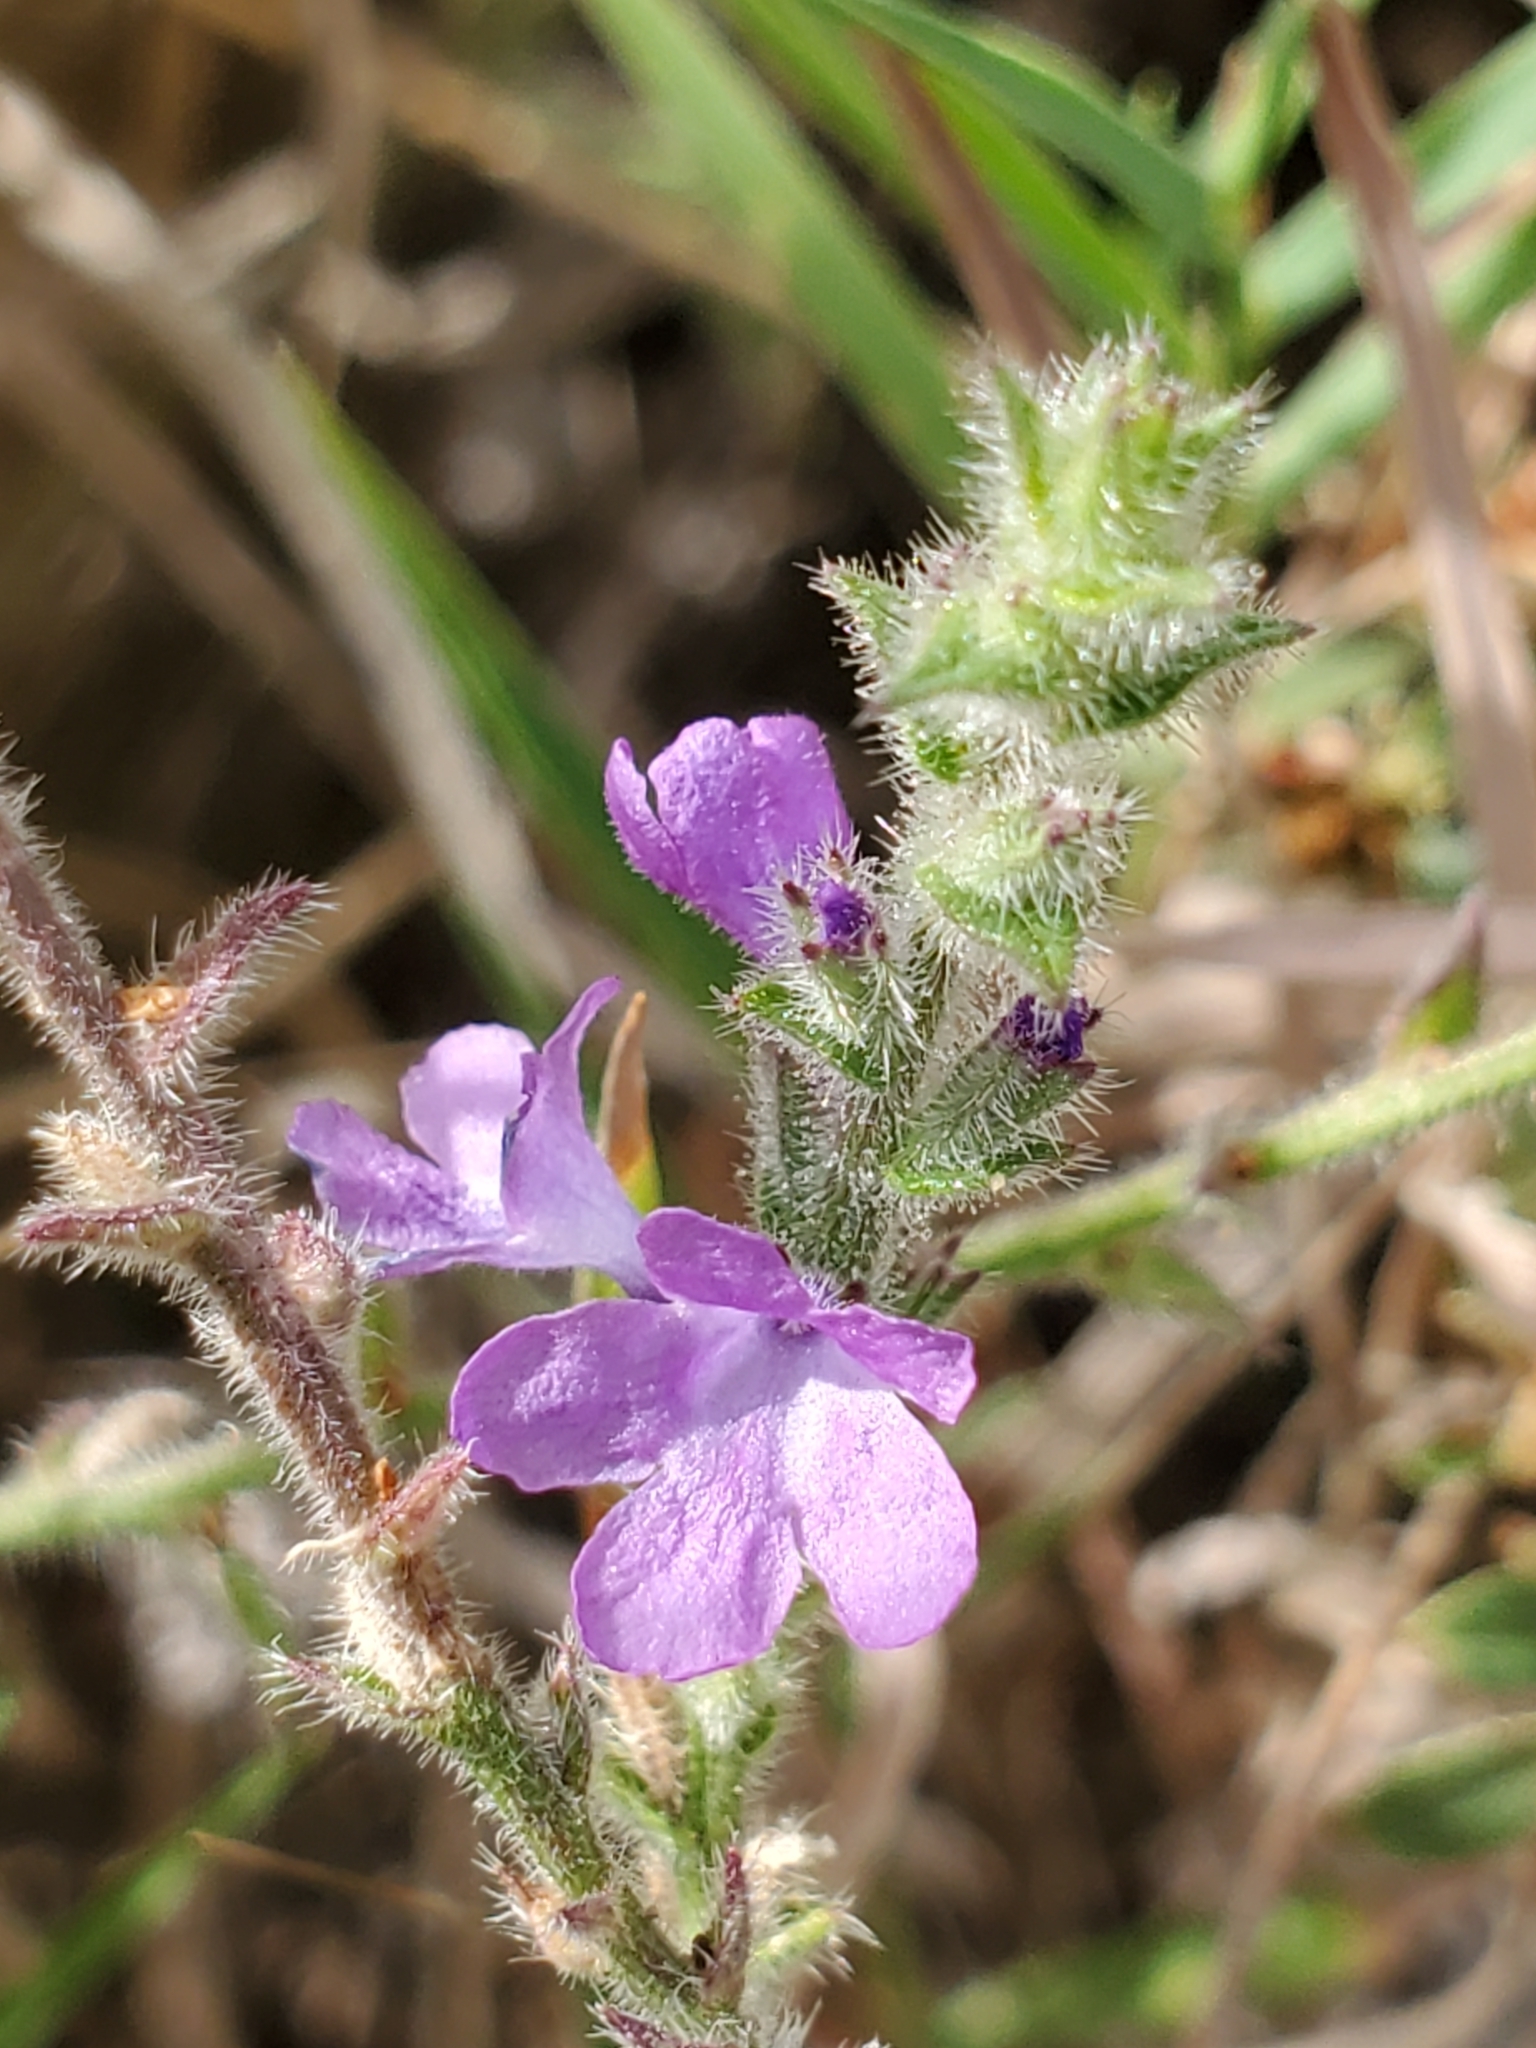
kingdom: Plantae
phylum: Tracheophyta
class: Magnoliopsida
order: Lamiales
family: Verbenaceae
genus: Verbena
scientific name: Verbena canescens
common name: Gray vervain
